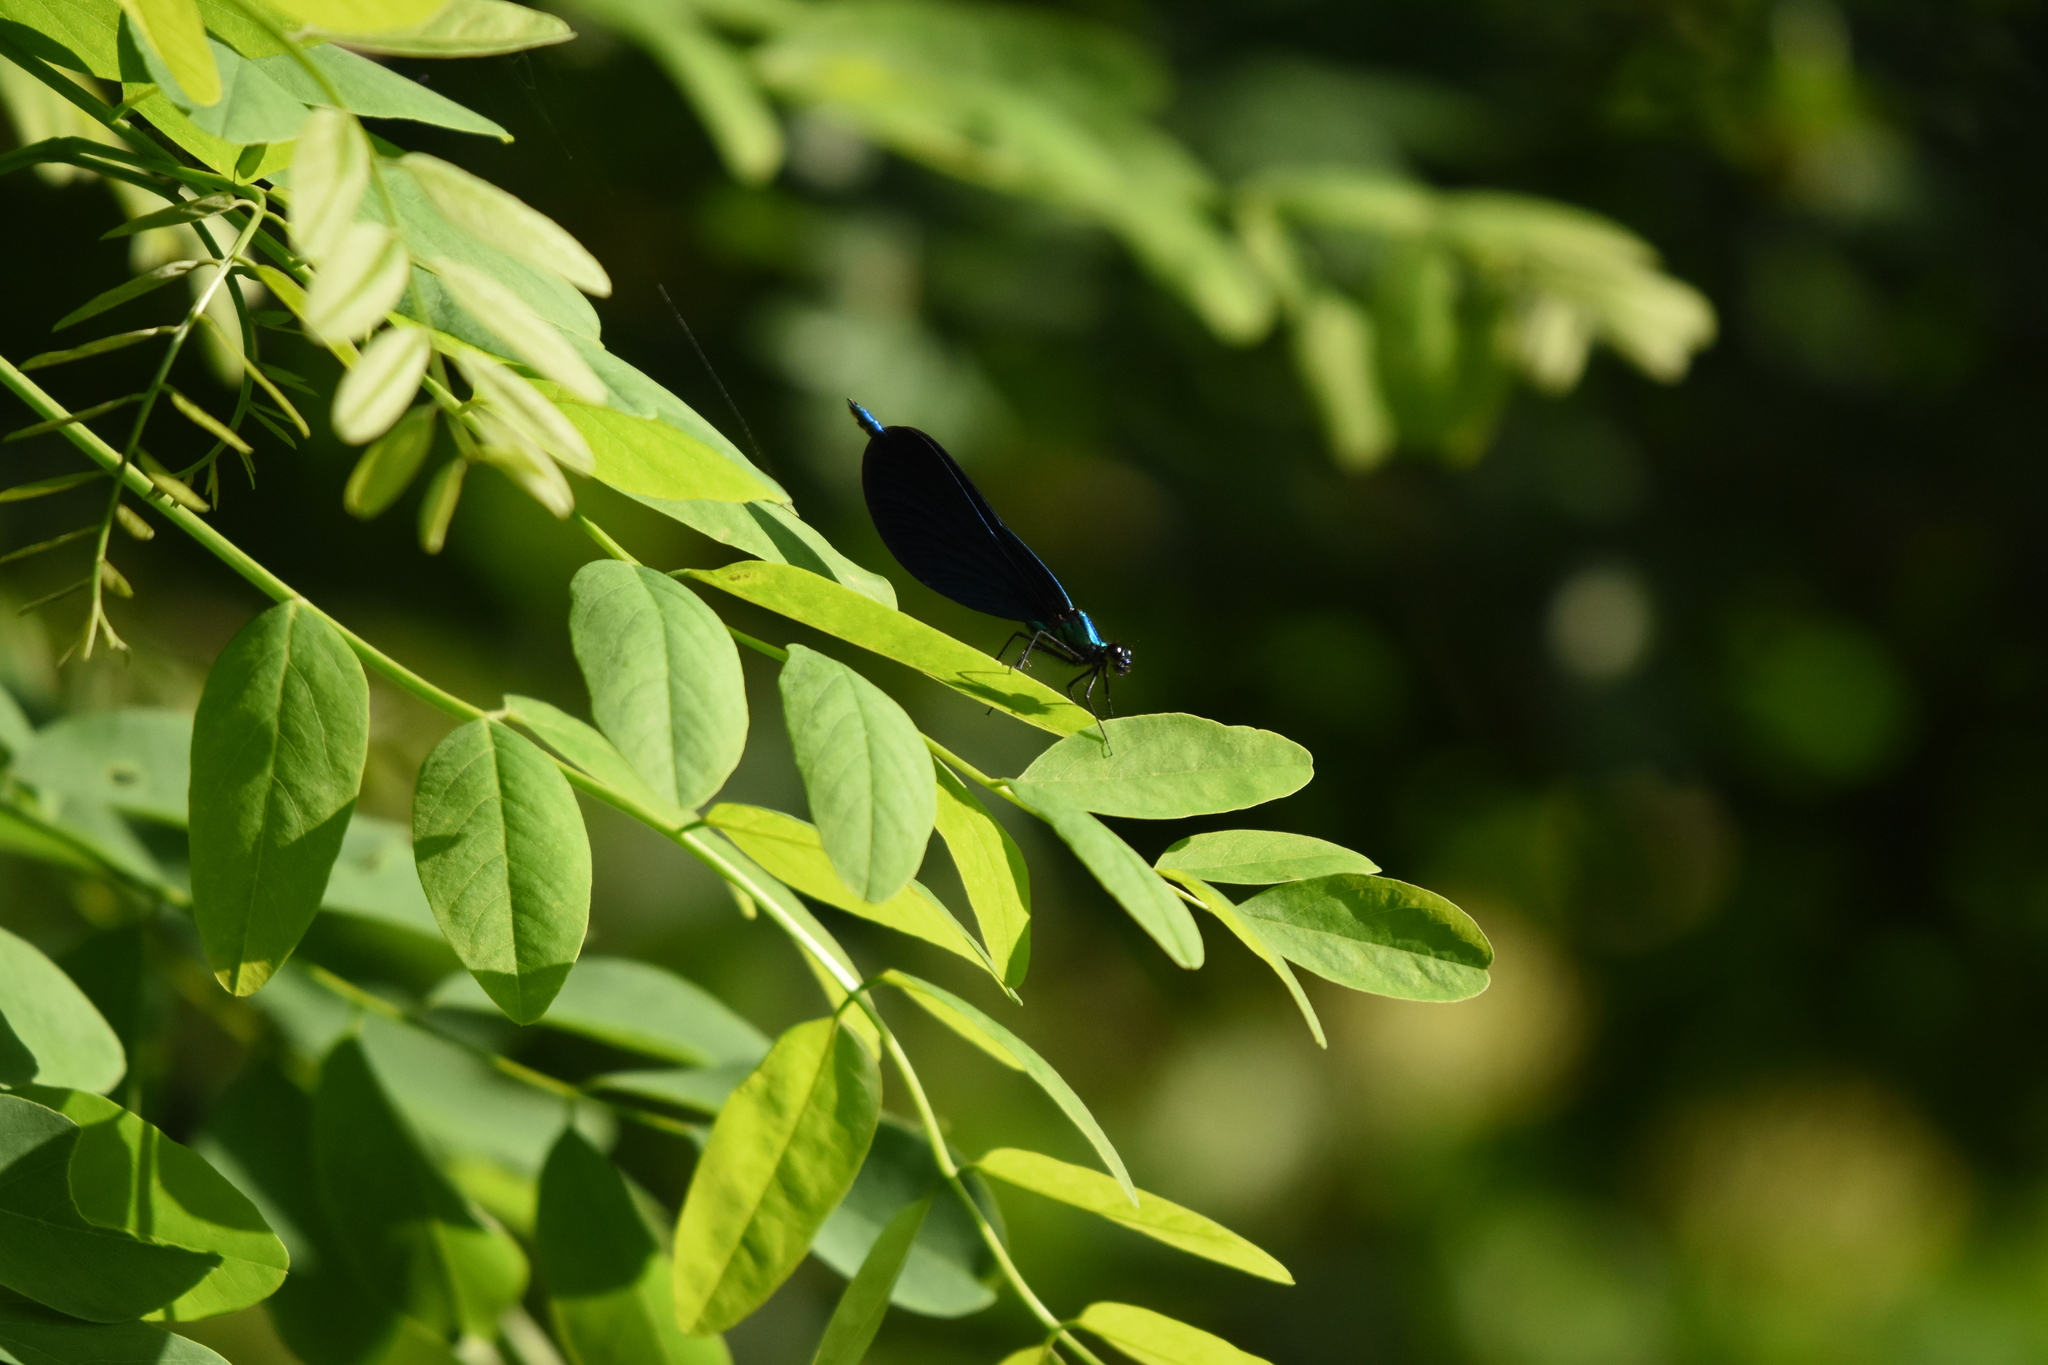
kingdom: Animalia
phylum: Arthropoda
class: Insecta
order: Odonata
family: Calopterygidae
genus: Calopteryx
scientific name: Calopteryx virgo
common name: Beautiful demoiselle
